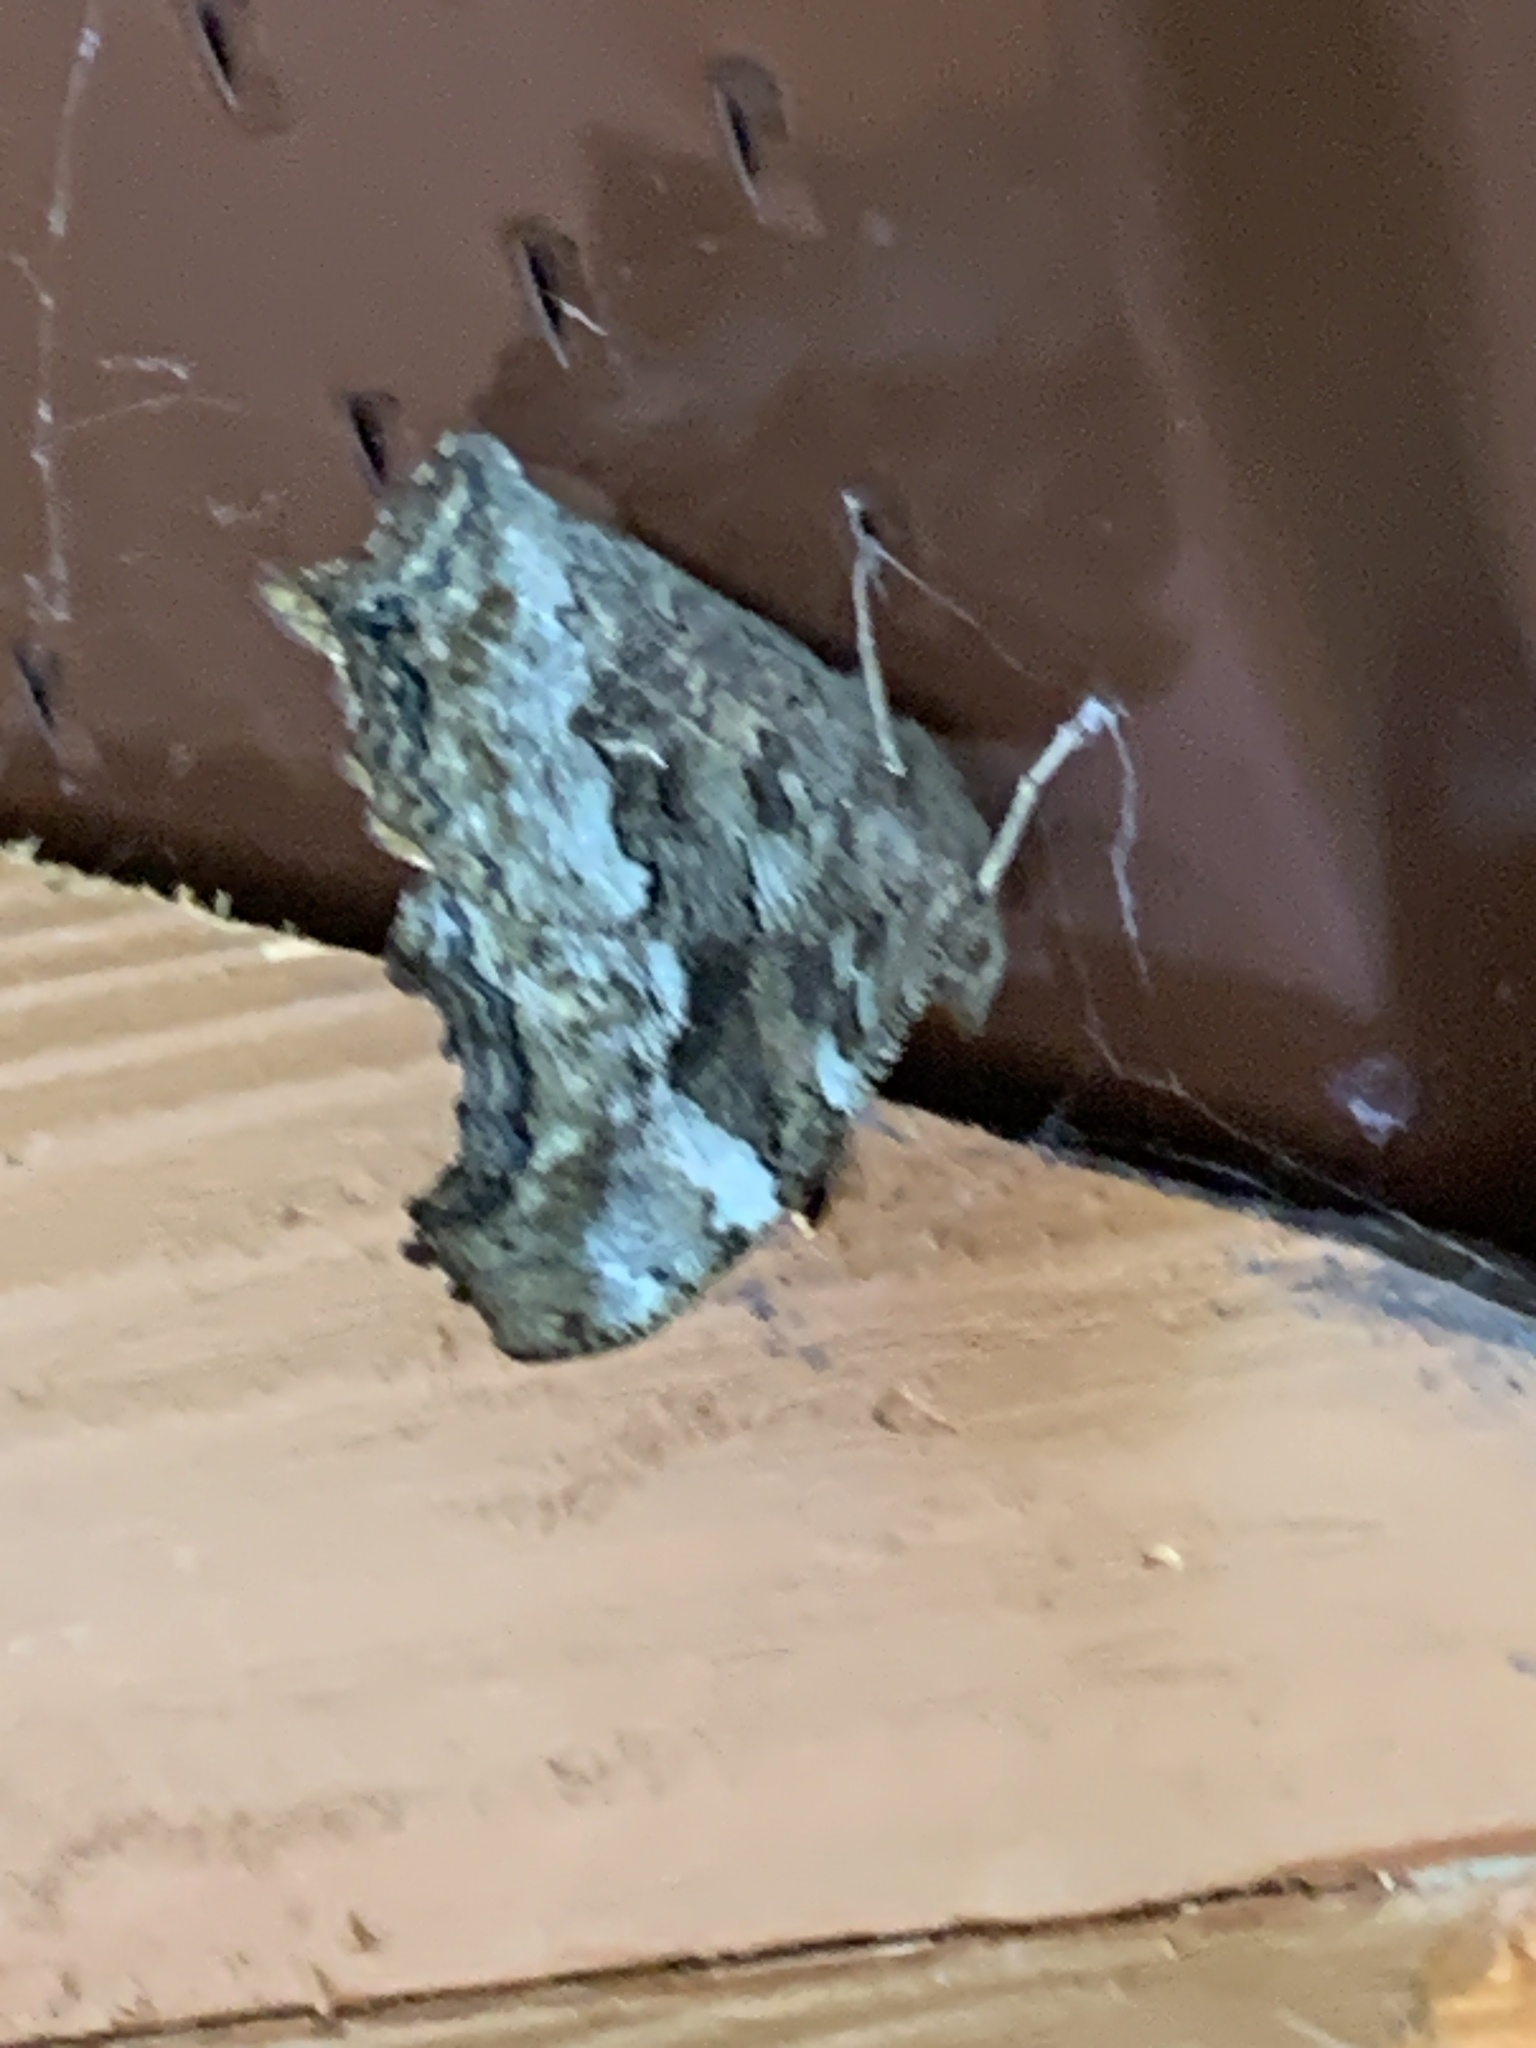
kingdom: Animalia
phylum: Arthropoda
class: Insecta
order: Lepidoptera
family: Nymphalidae
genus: Polygonia
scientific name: Polygonia vaualbum
